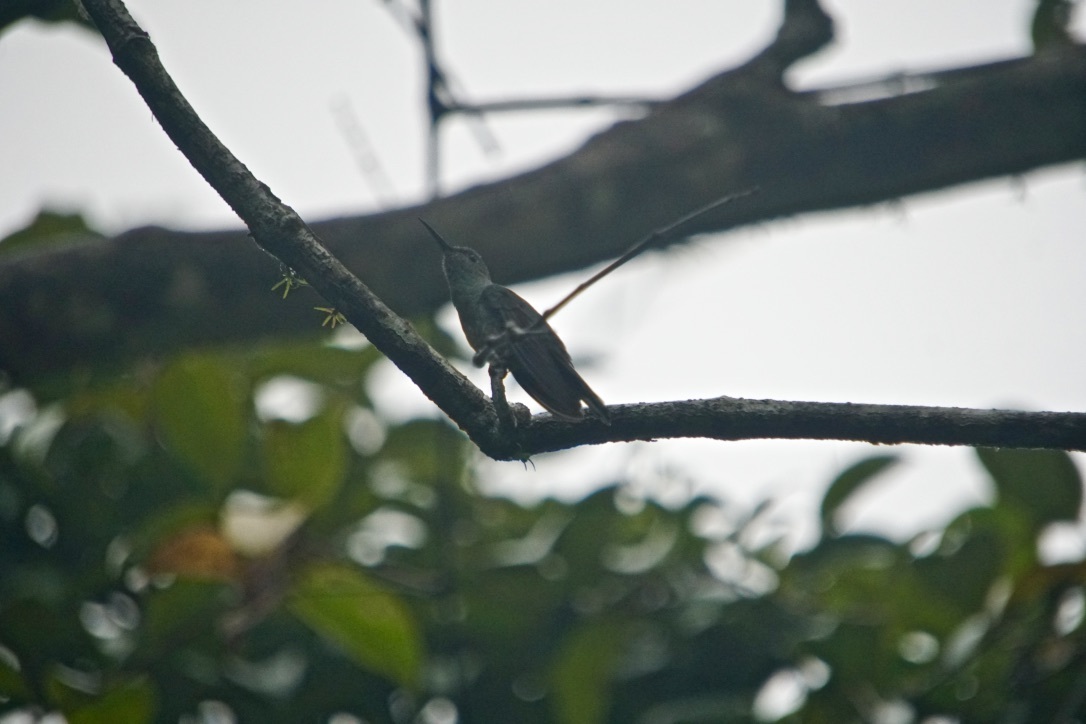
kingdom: Animalia
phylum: Chordata
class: Aves
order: Apodiformes
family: Trochilidae
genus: Phaeochroa
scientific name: Phaeochroa cuvierii
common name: Scaly-breasted hummingbird
